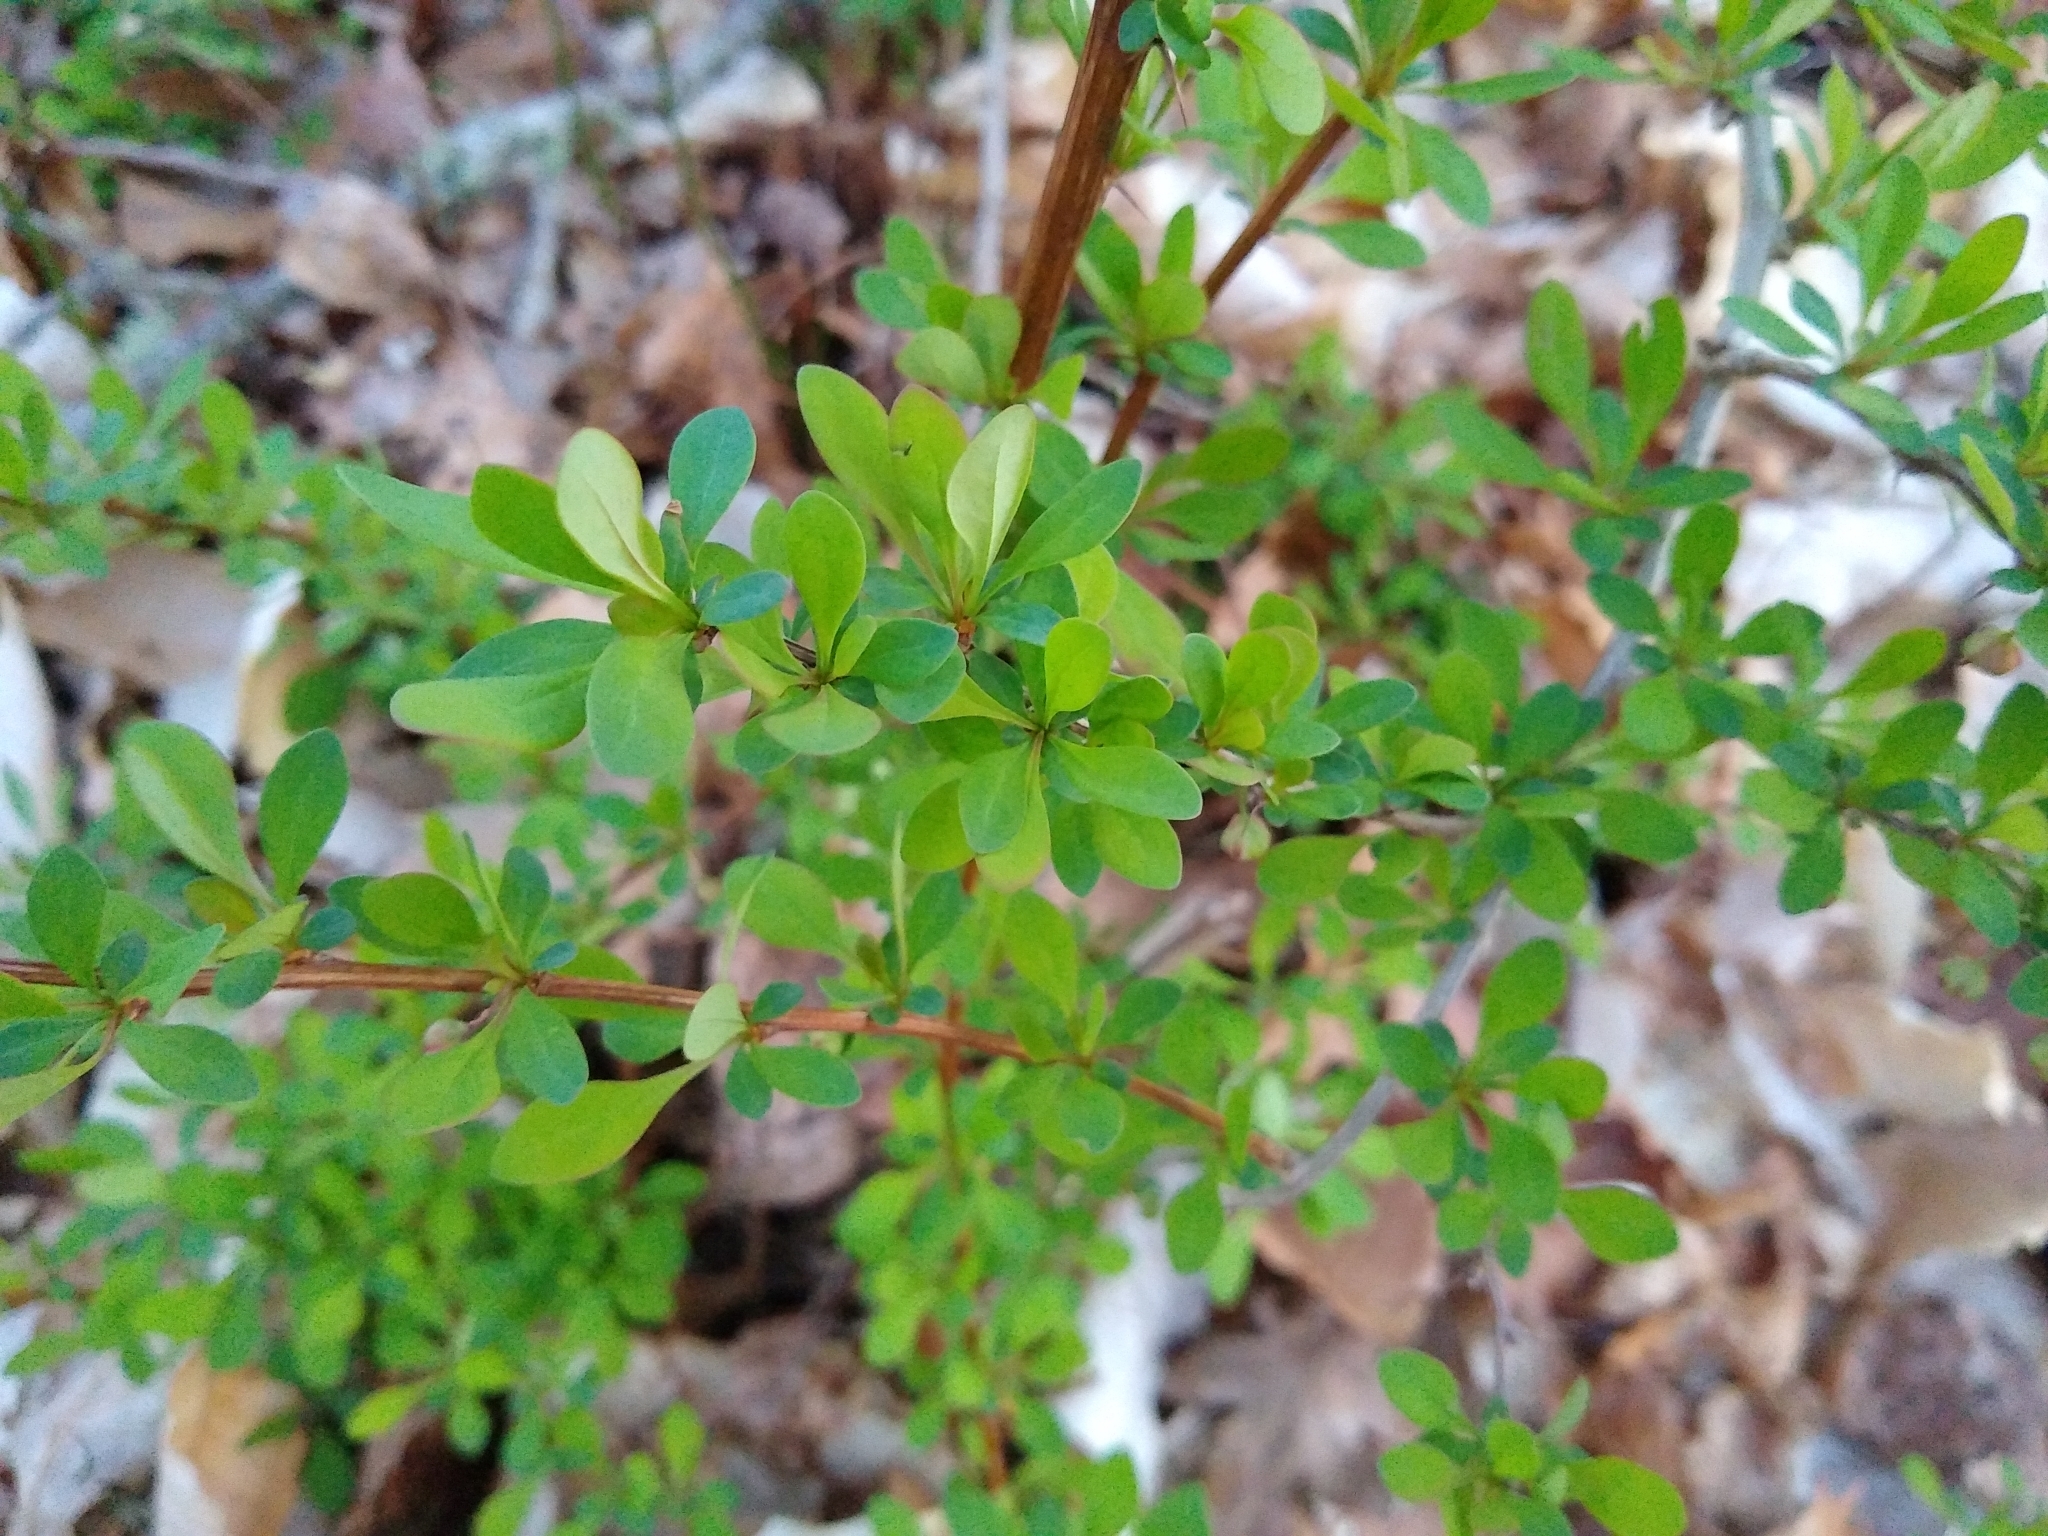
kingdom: Plantae
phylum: Tracheophyta
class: Magnoliopsida
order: Ranunculales
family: Berberidaceae
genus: Berberis
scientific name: Berberis thunbergii
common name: Japanese barberry
